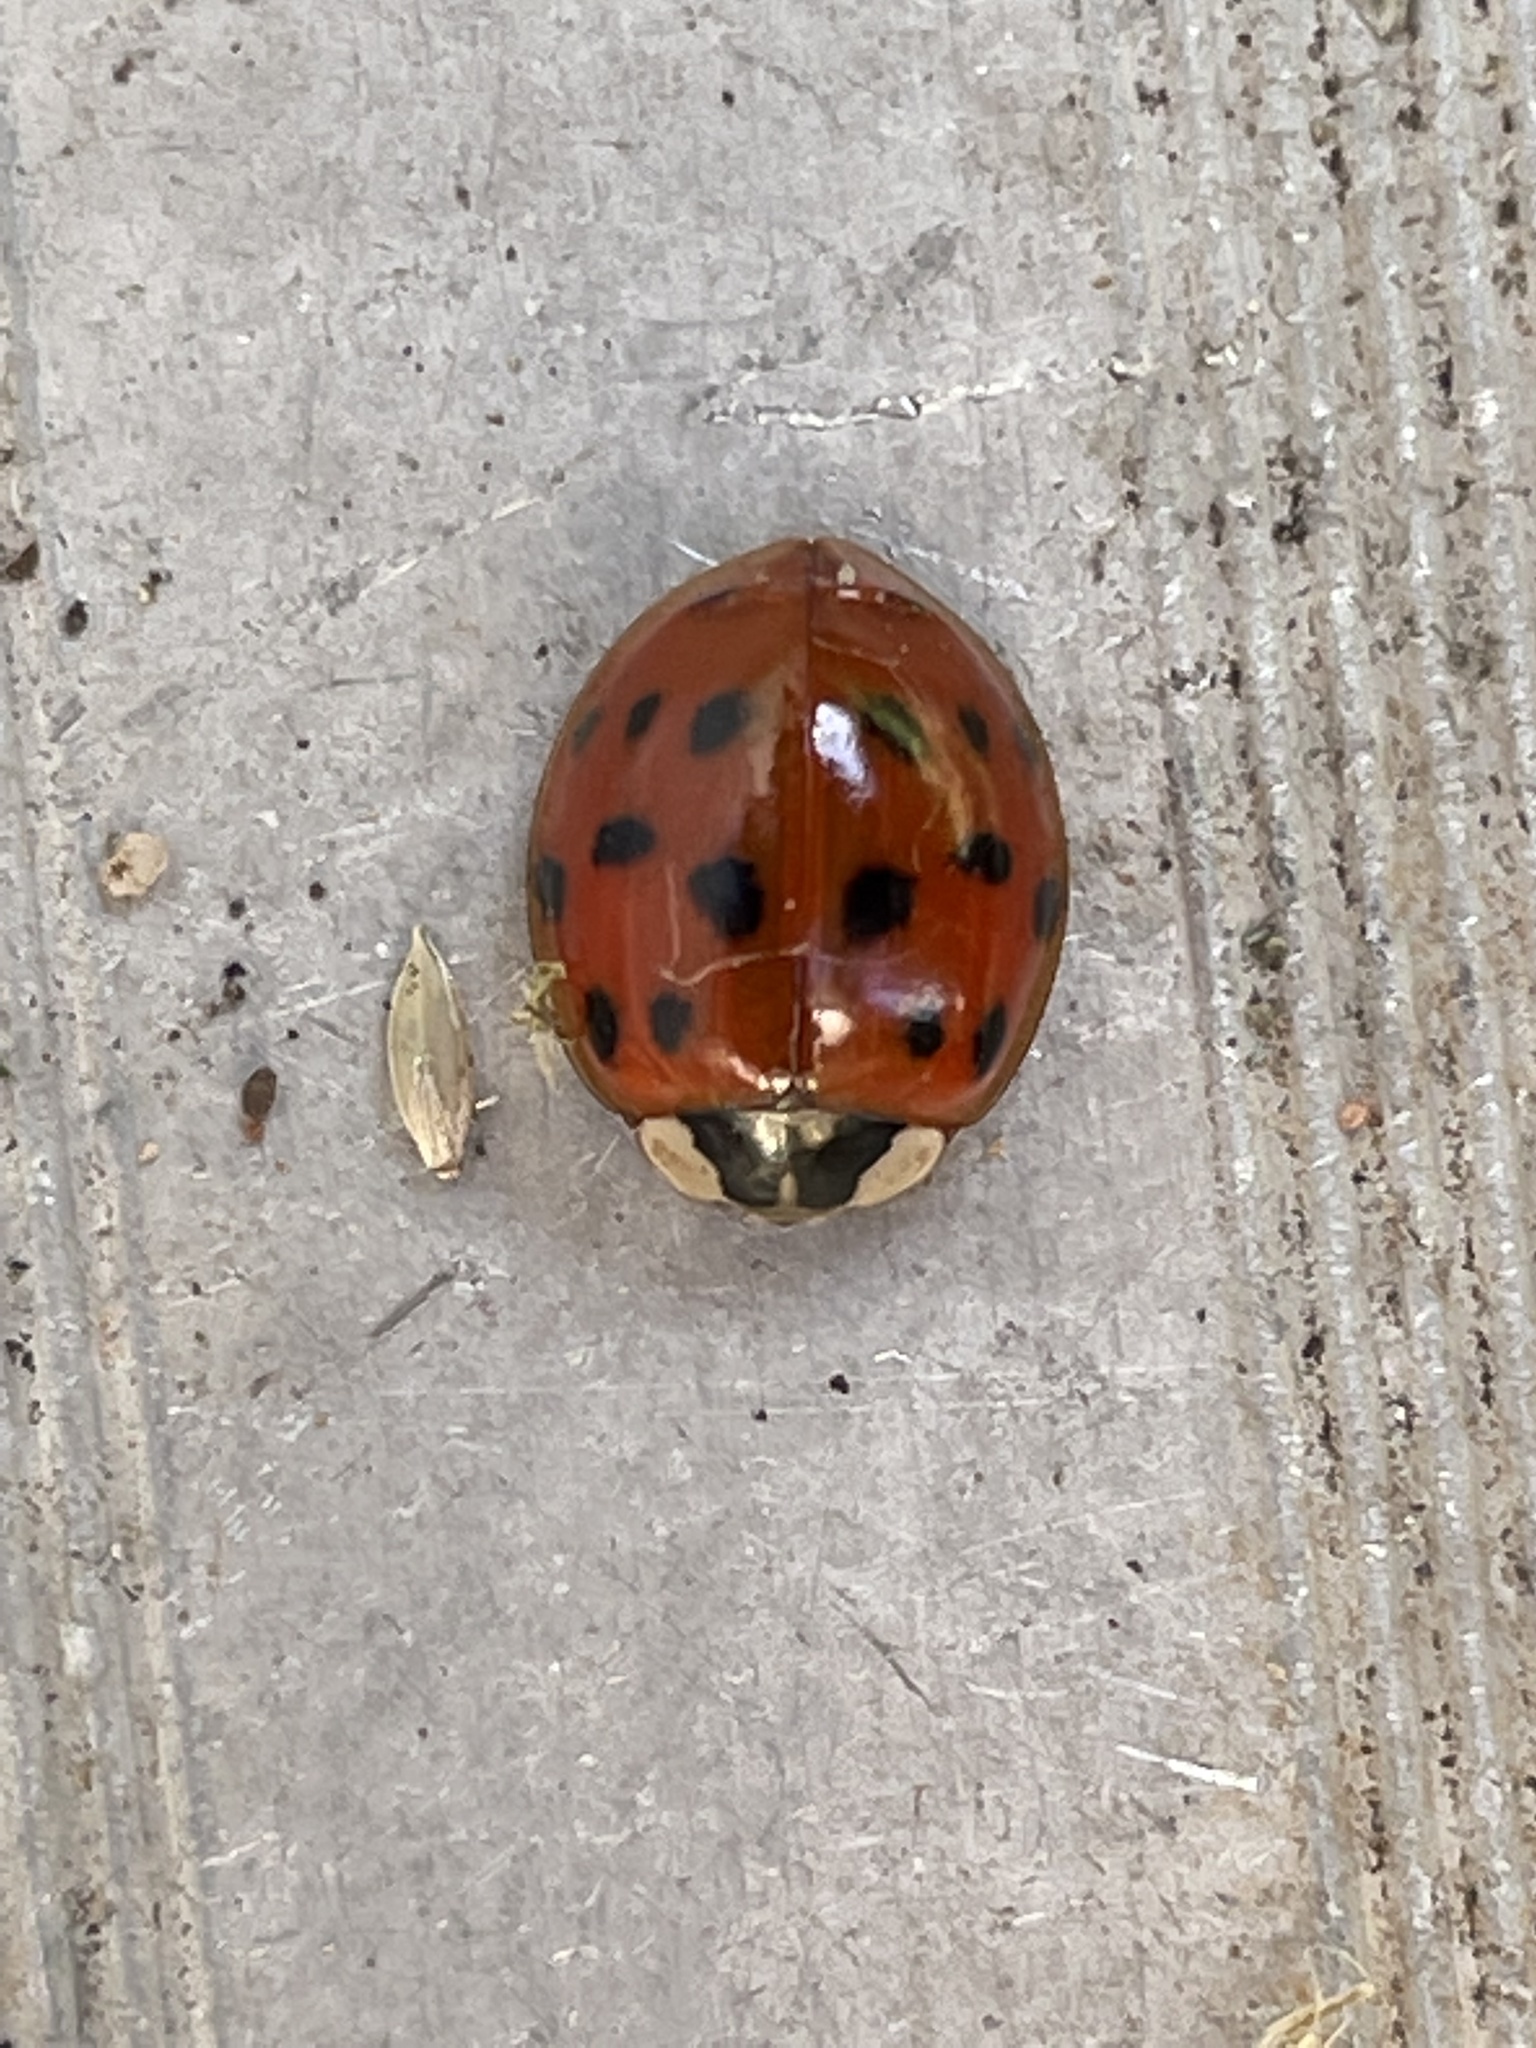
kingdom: Animalia
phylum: Arthropoda
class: Insecta
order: Coleoptera
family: Coccinellidae
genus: Harmonia
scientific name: Harmonia axyridis
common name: Harlequin ladybird
